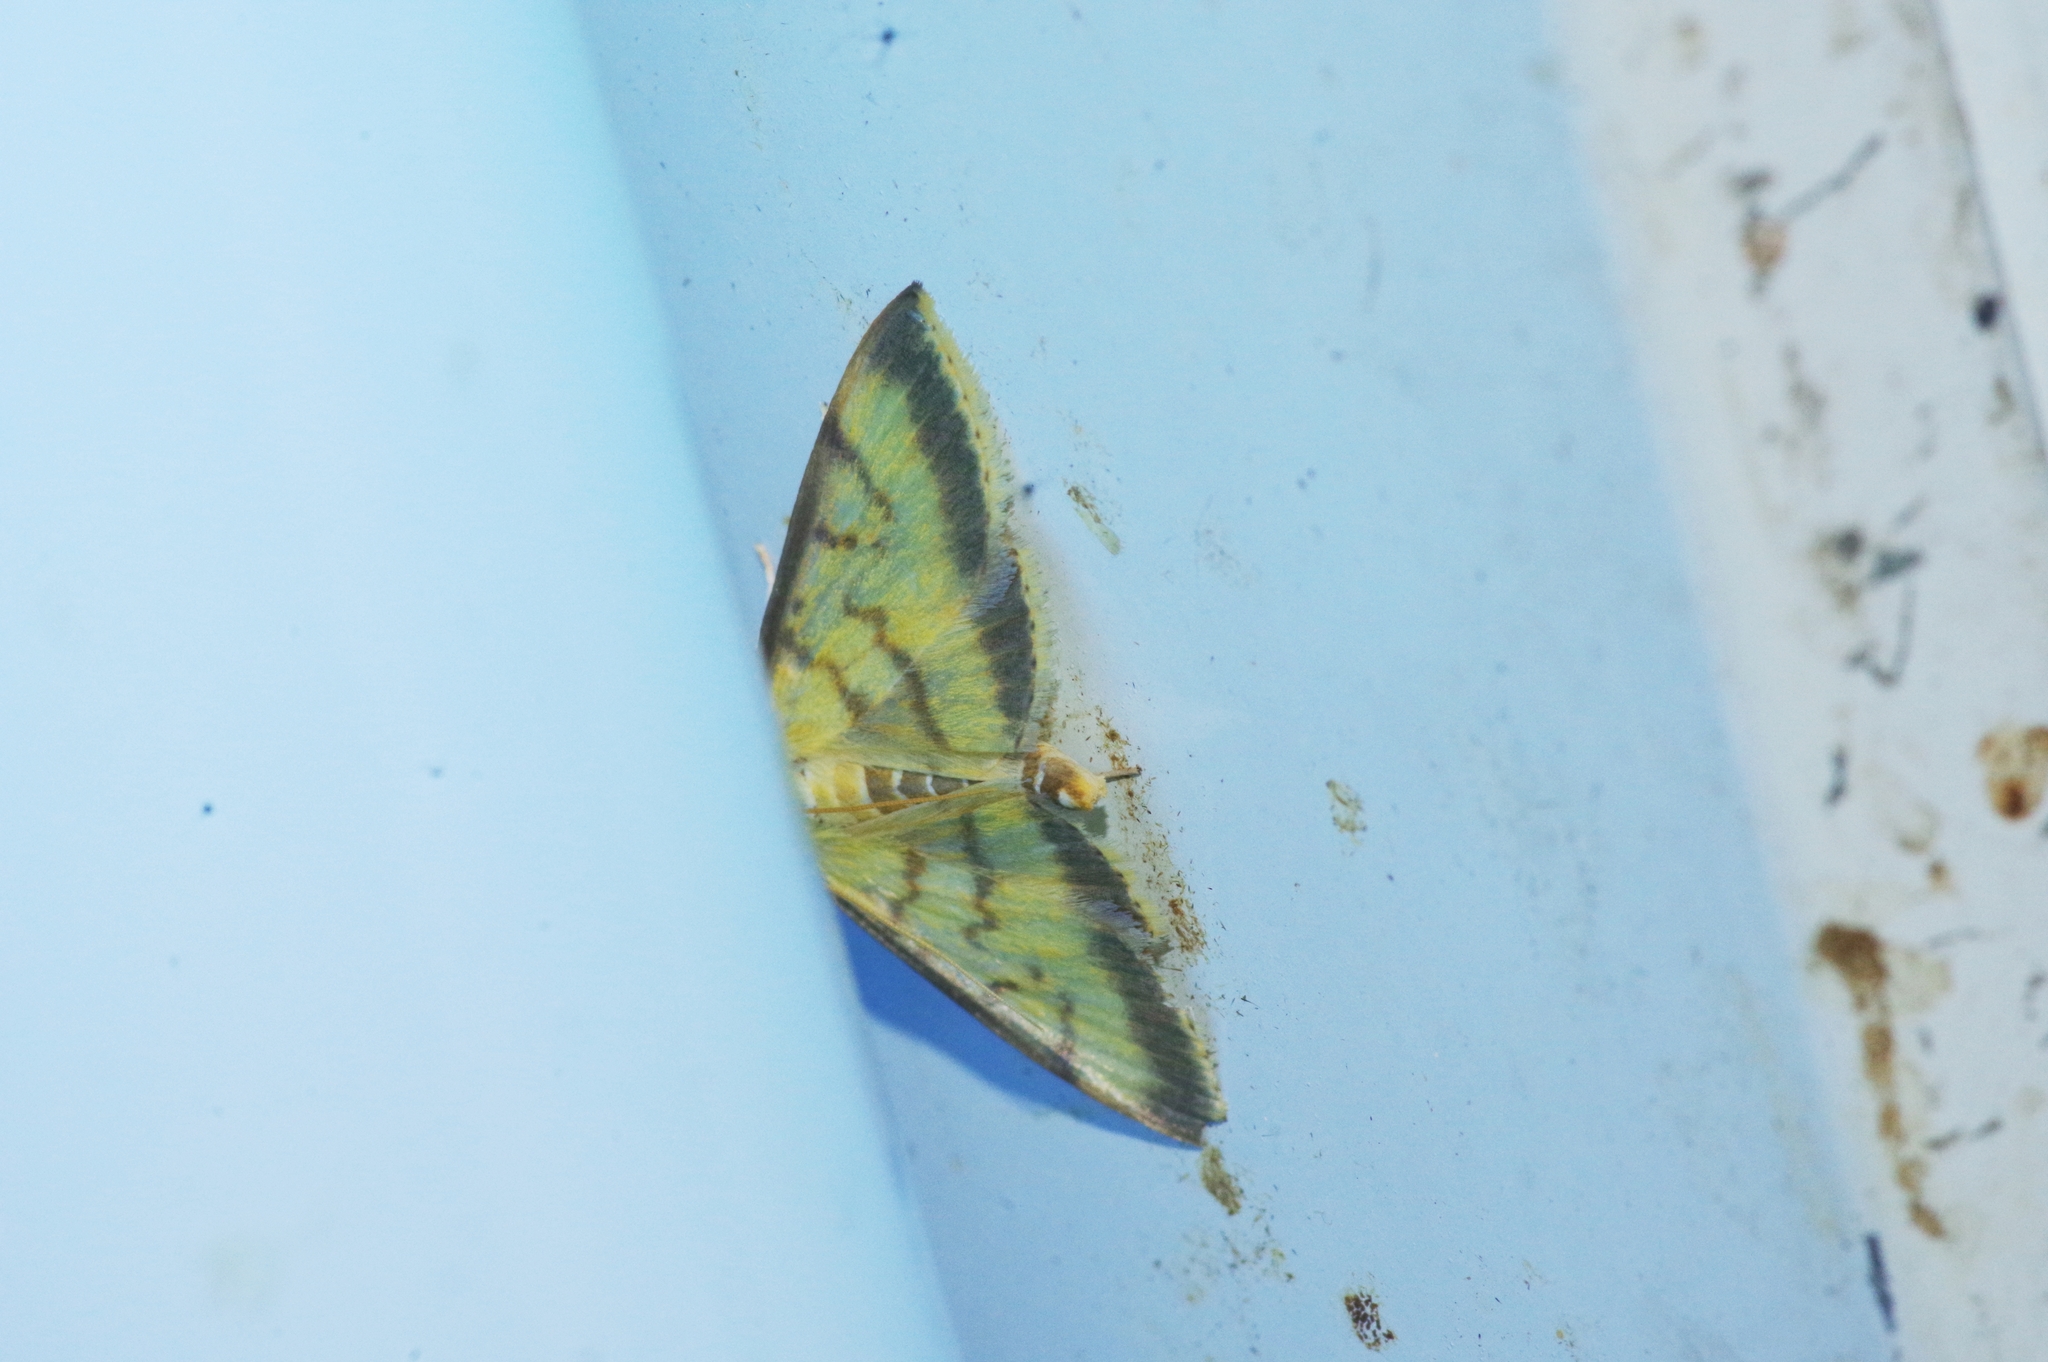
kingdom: Animalia
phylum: Arthropoda
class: Insecta
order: Lepidoptera
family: Crambidae
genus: Nephelobotys
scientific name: Nephelobotys evenoralis
